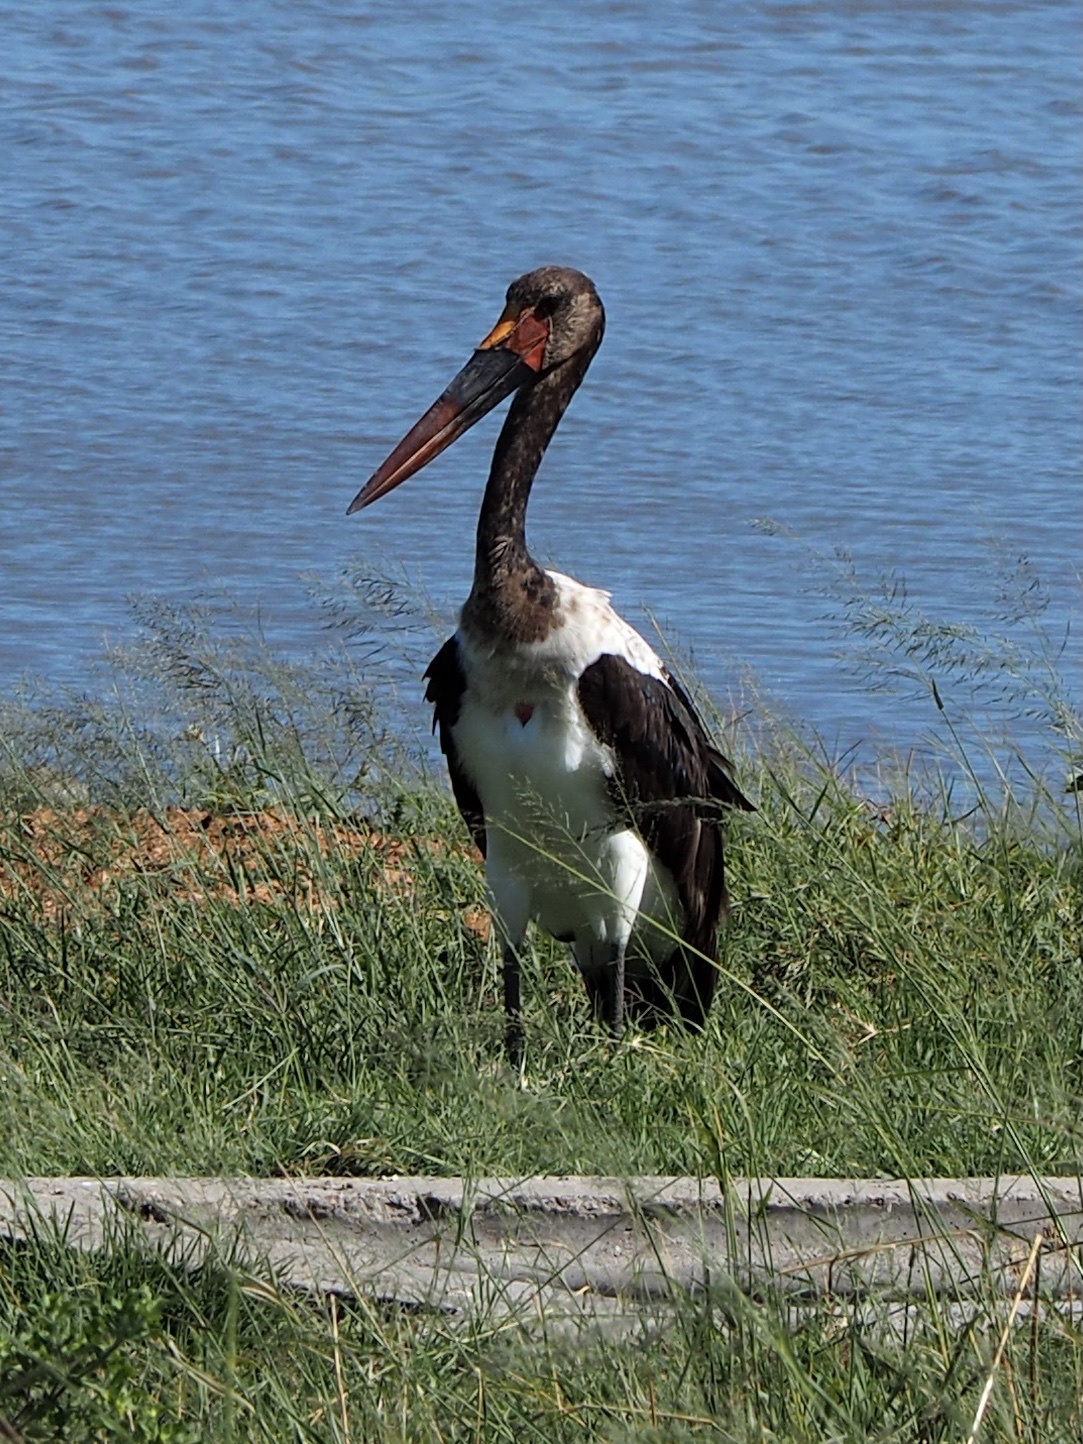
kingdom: Animalia
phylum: Chordata
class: Aves
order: Ciconiiformes
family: Ciconiidae
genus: Ephippiorhynchus
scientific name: Ephippiorhynchus senegalensis
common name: Saddle-billed stork
